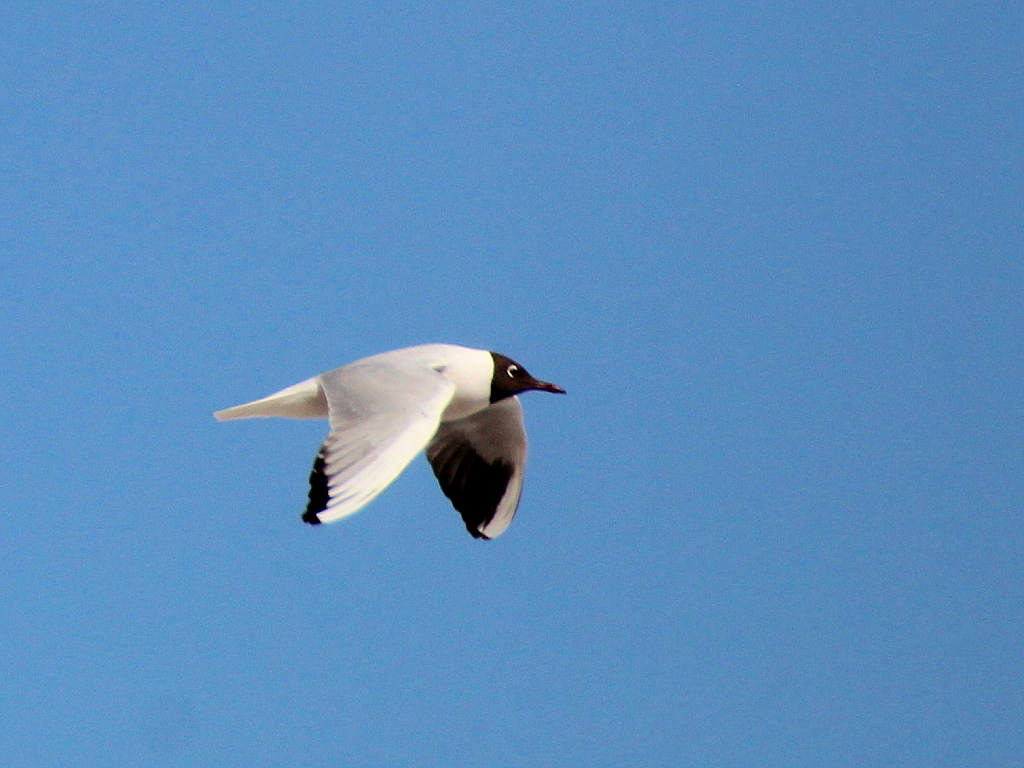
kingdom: Animalia
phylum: Chordata
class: Aves
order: Charadriiformes
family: Laridae
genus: Chroicocephalus
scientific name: Chroicocephalus ridibundus
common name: Black-headed gull
